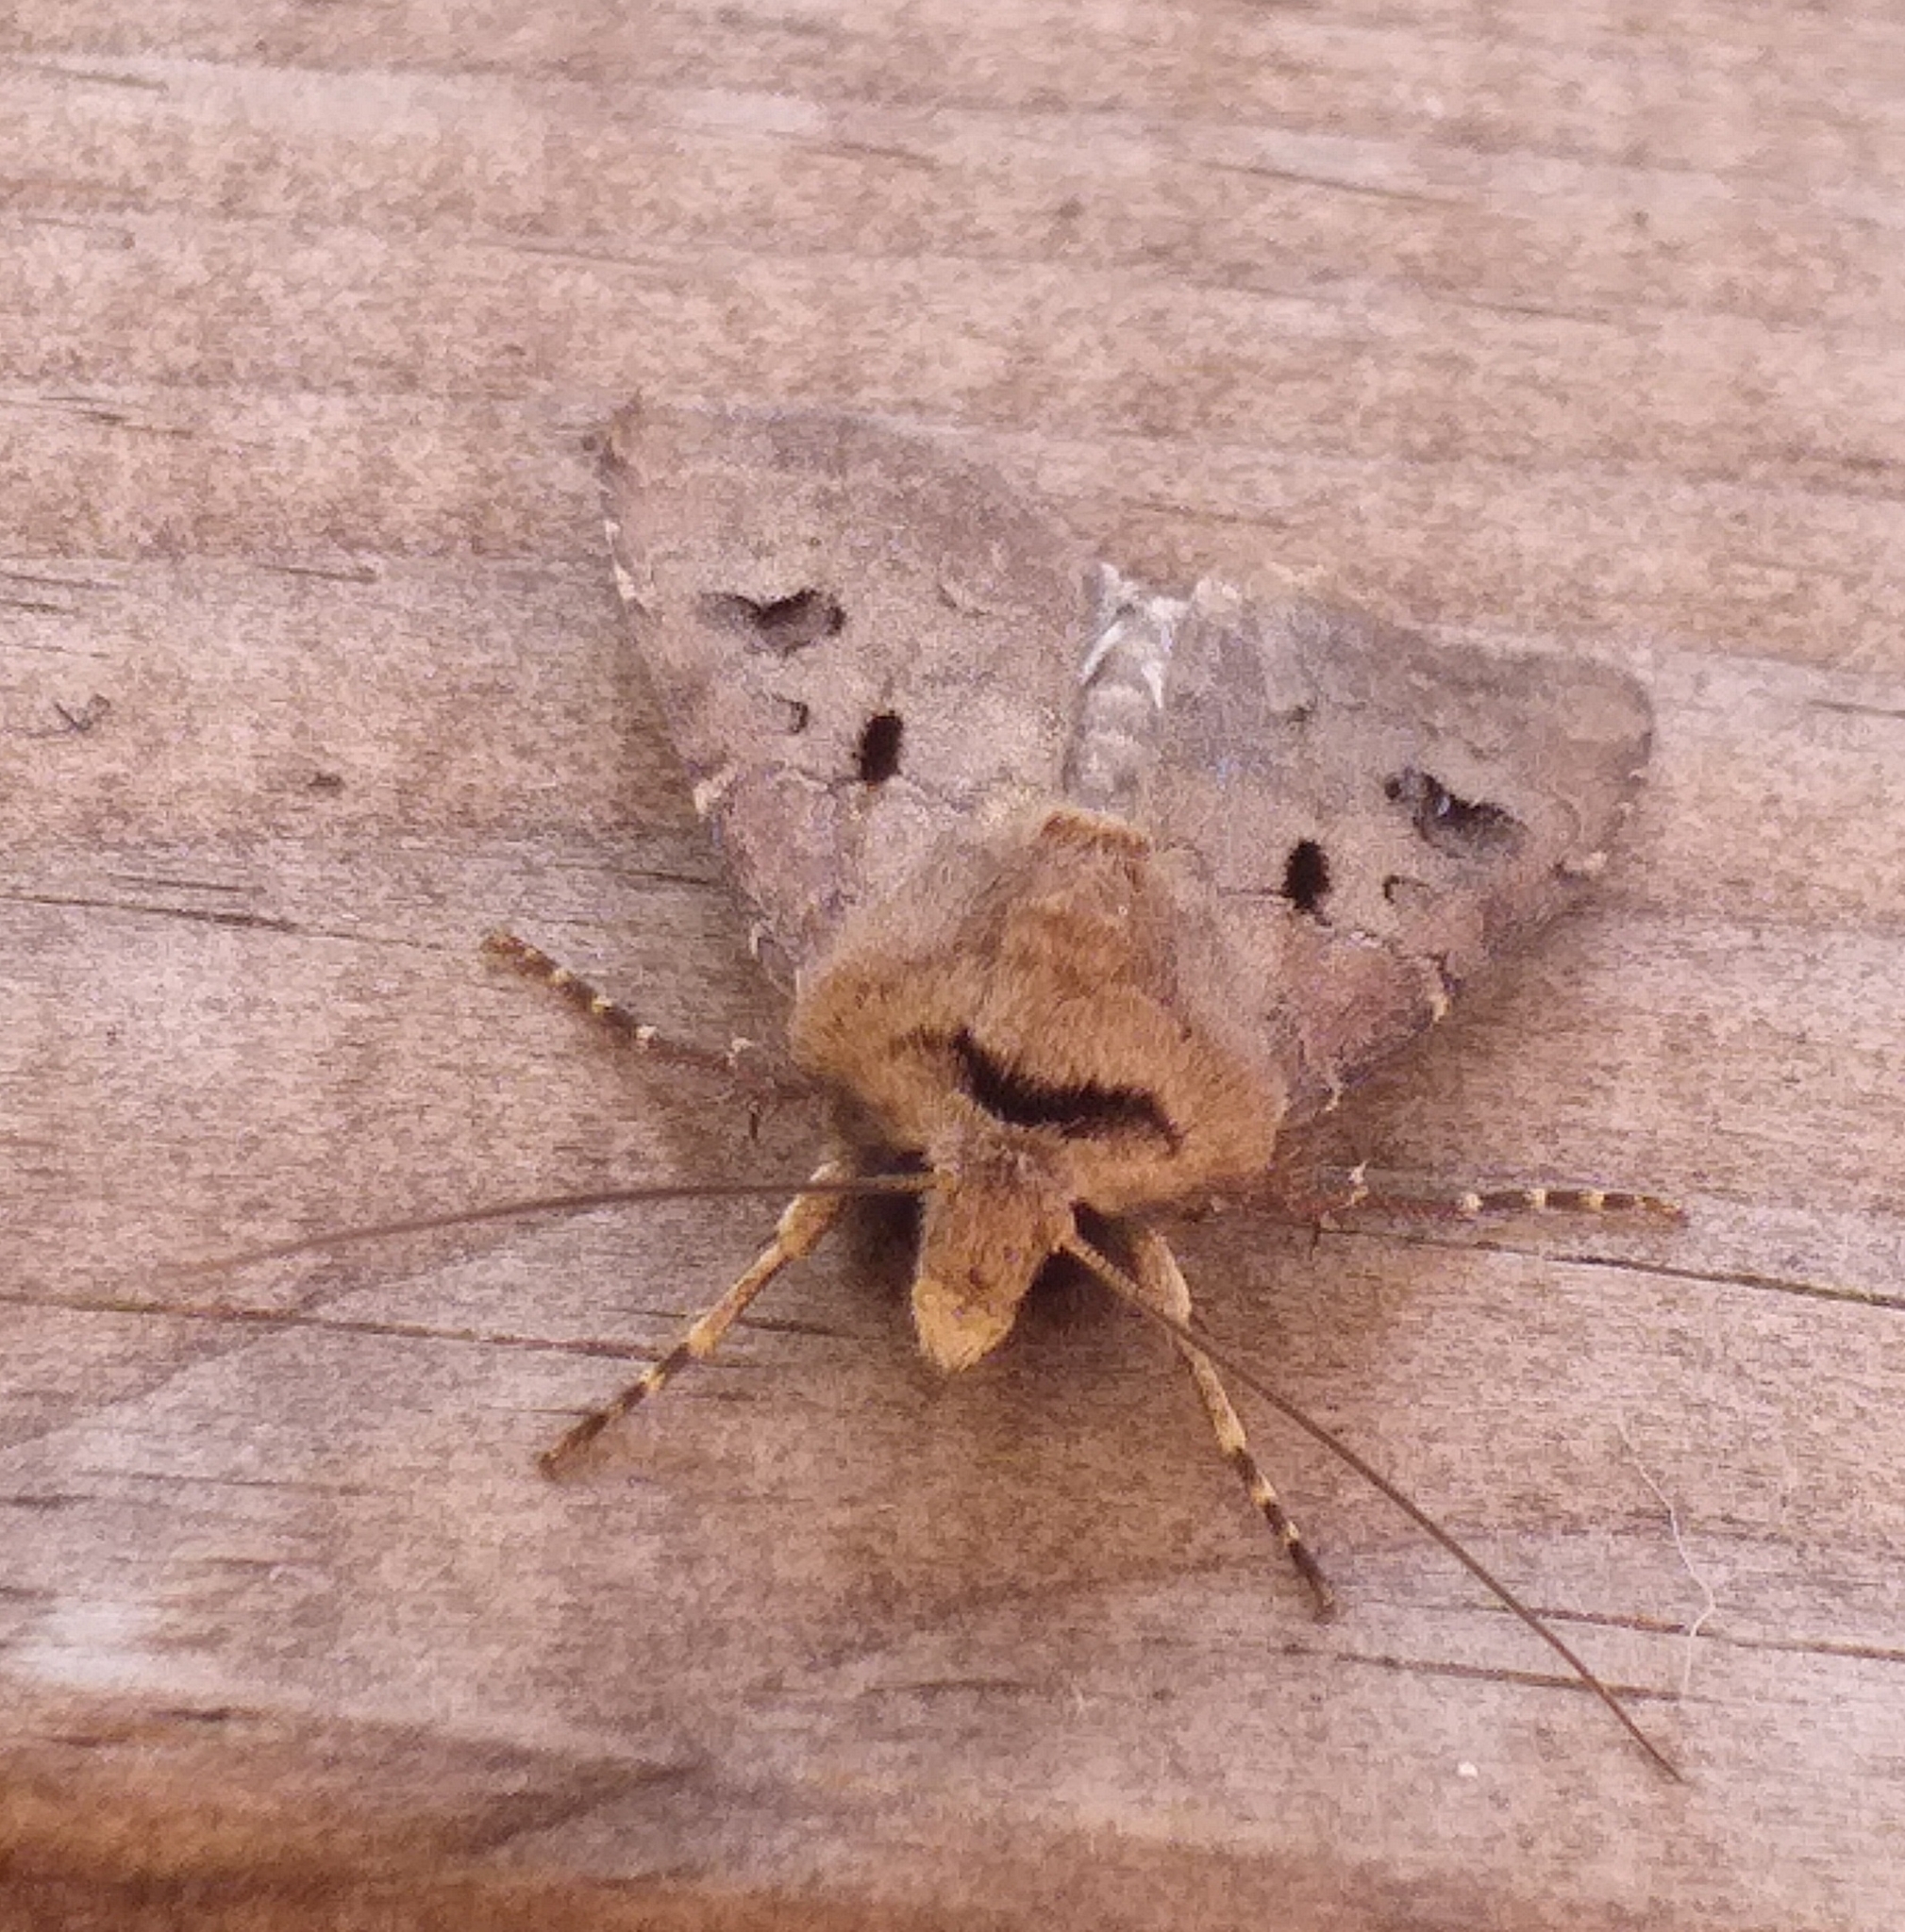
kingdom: Animalia
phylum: Arthropoda
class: Insecta
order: Lepidoptera
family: Noctuidae
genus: Agrotis
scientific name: Agrotis exclamationis
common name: Heart and dart
